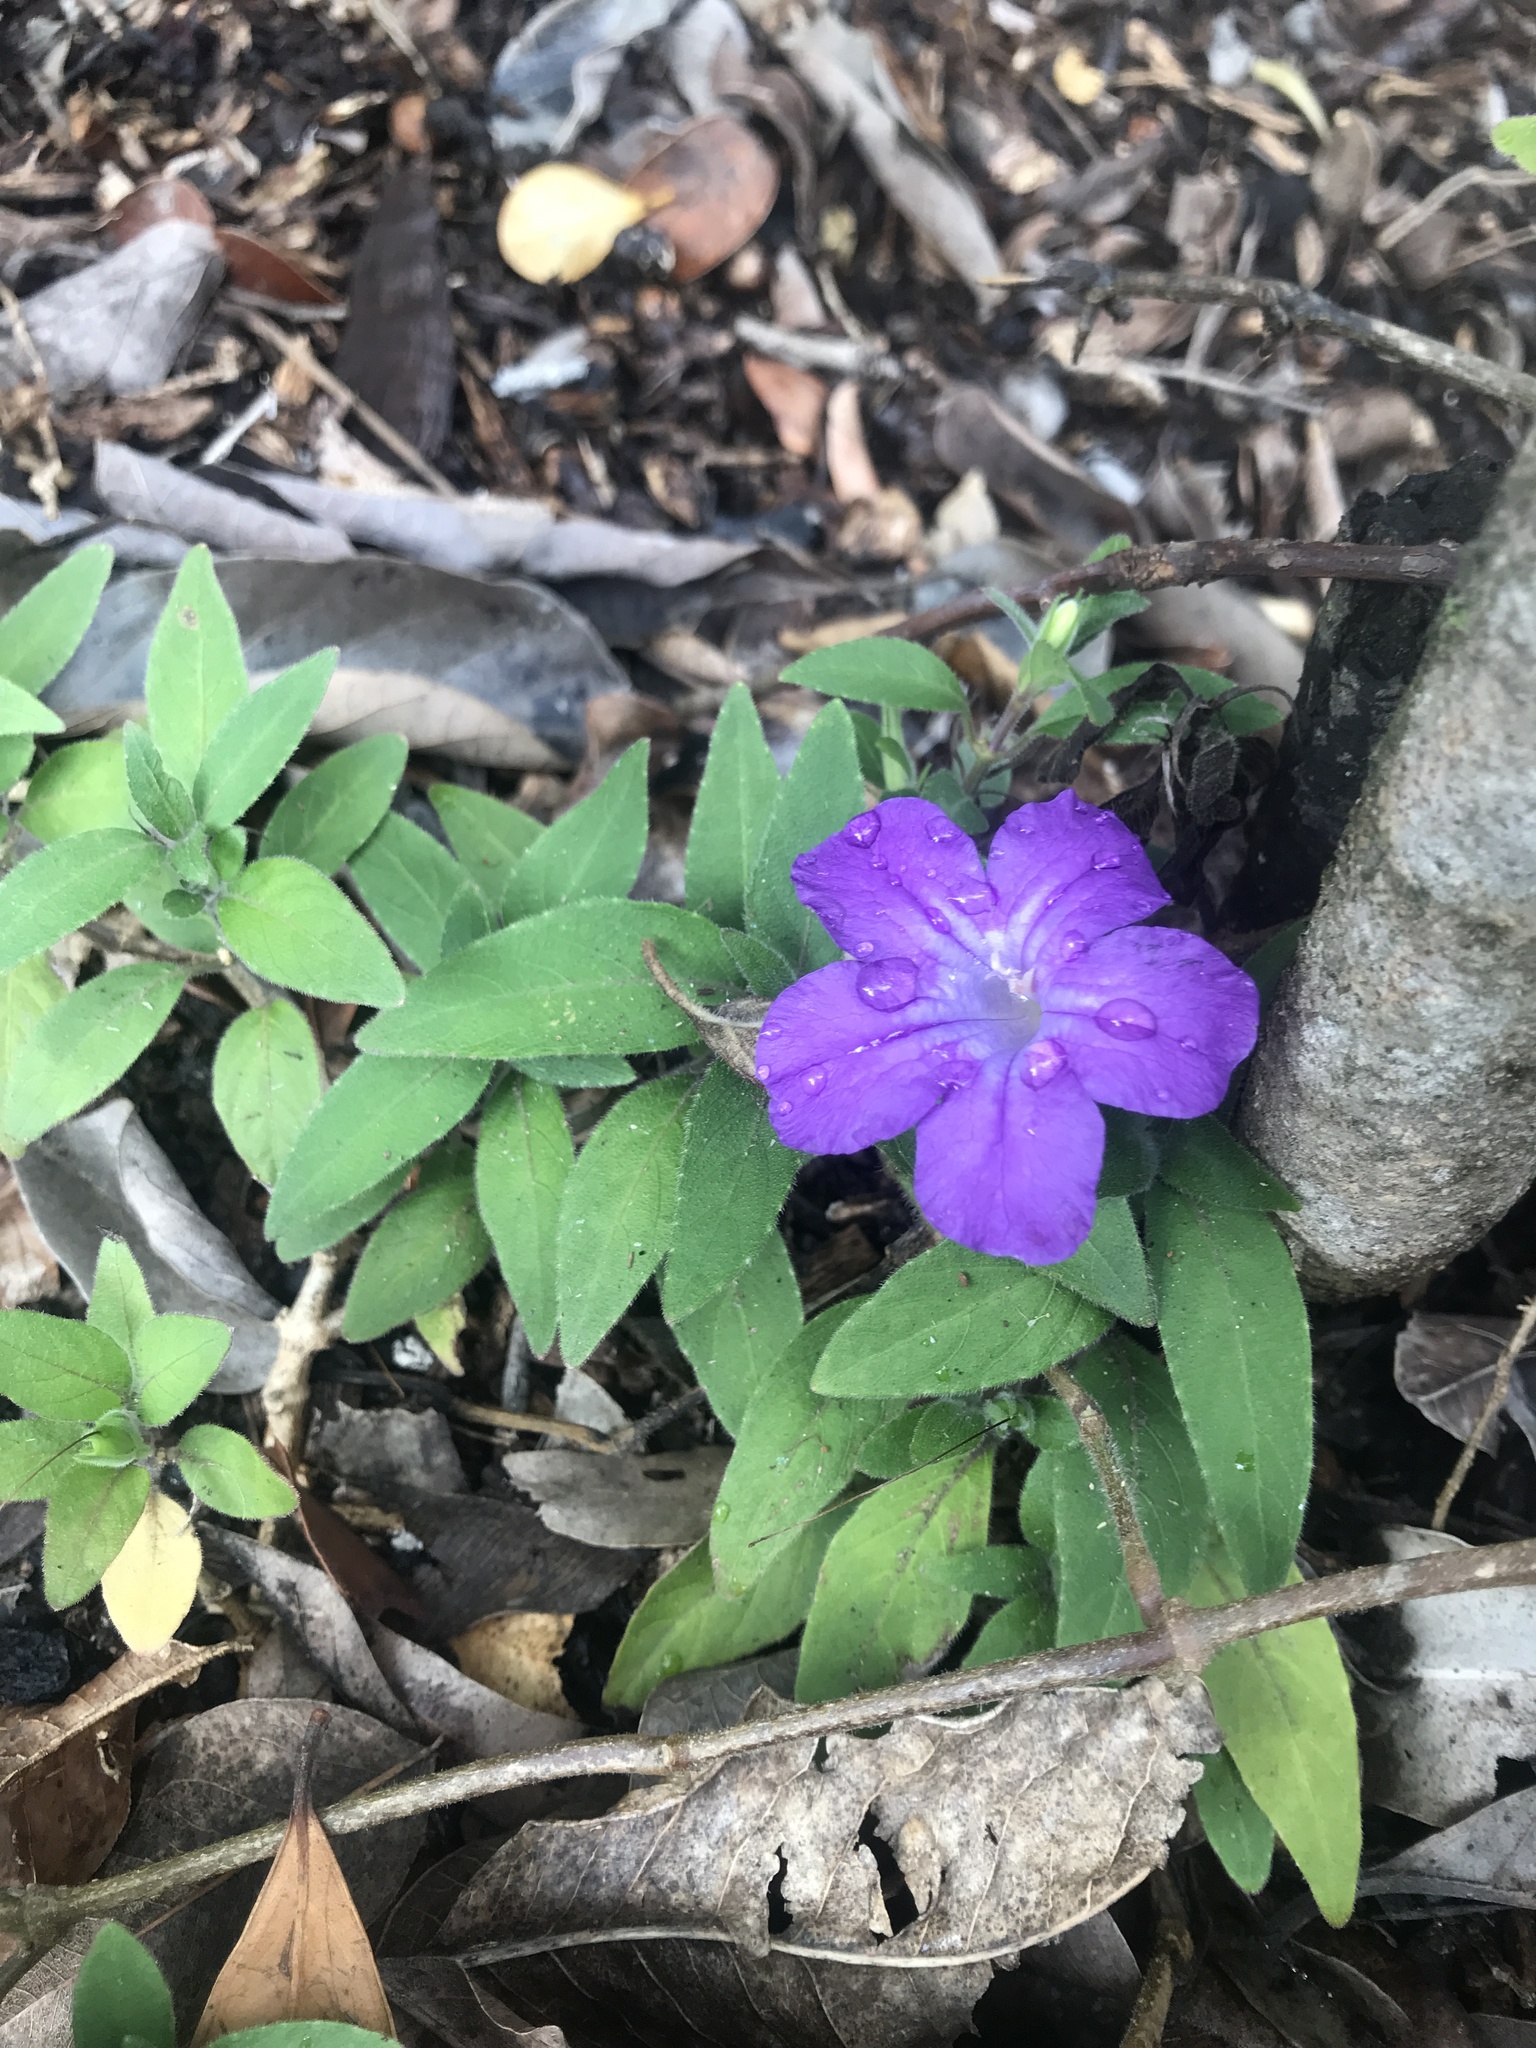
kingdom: Plantae
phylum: Tracheophyta
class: Magnoliopsida
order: Lamiales
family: Acanthaceae
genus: Ruellia
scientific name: Ruellia squarrosa
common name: Water bluebell
